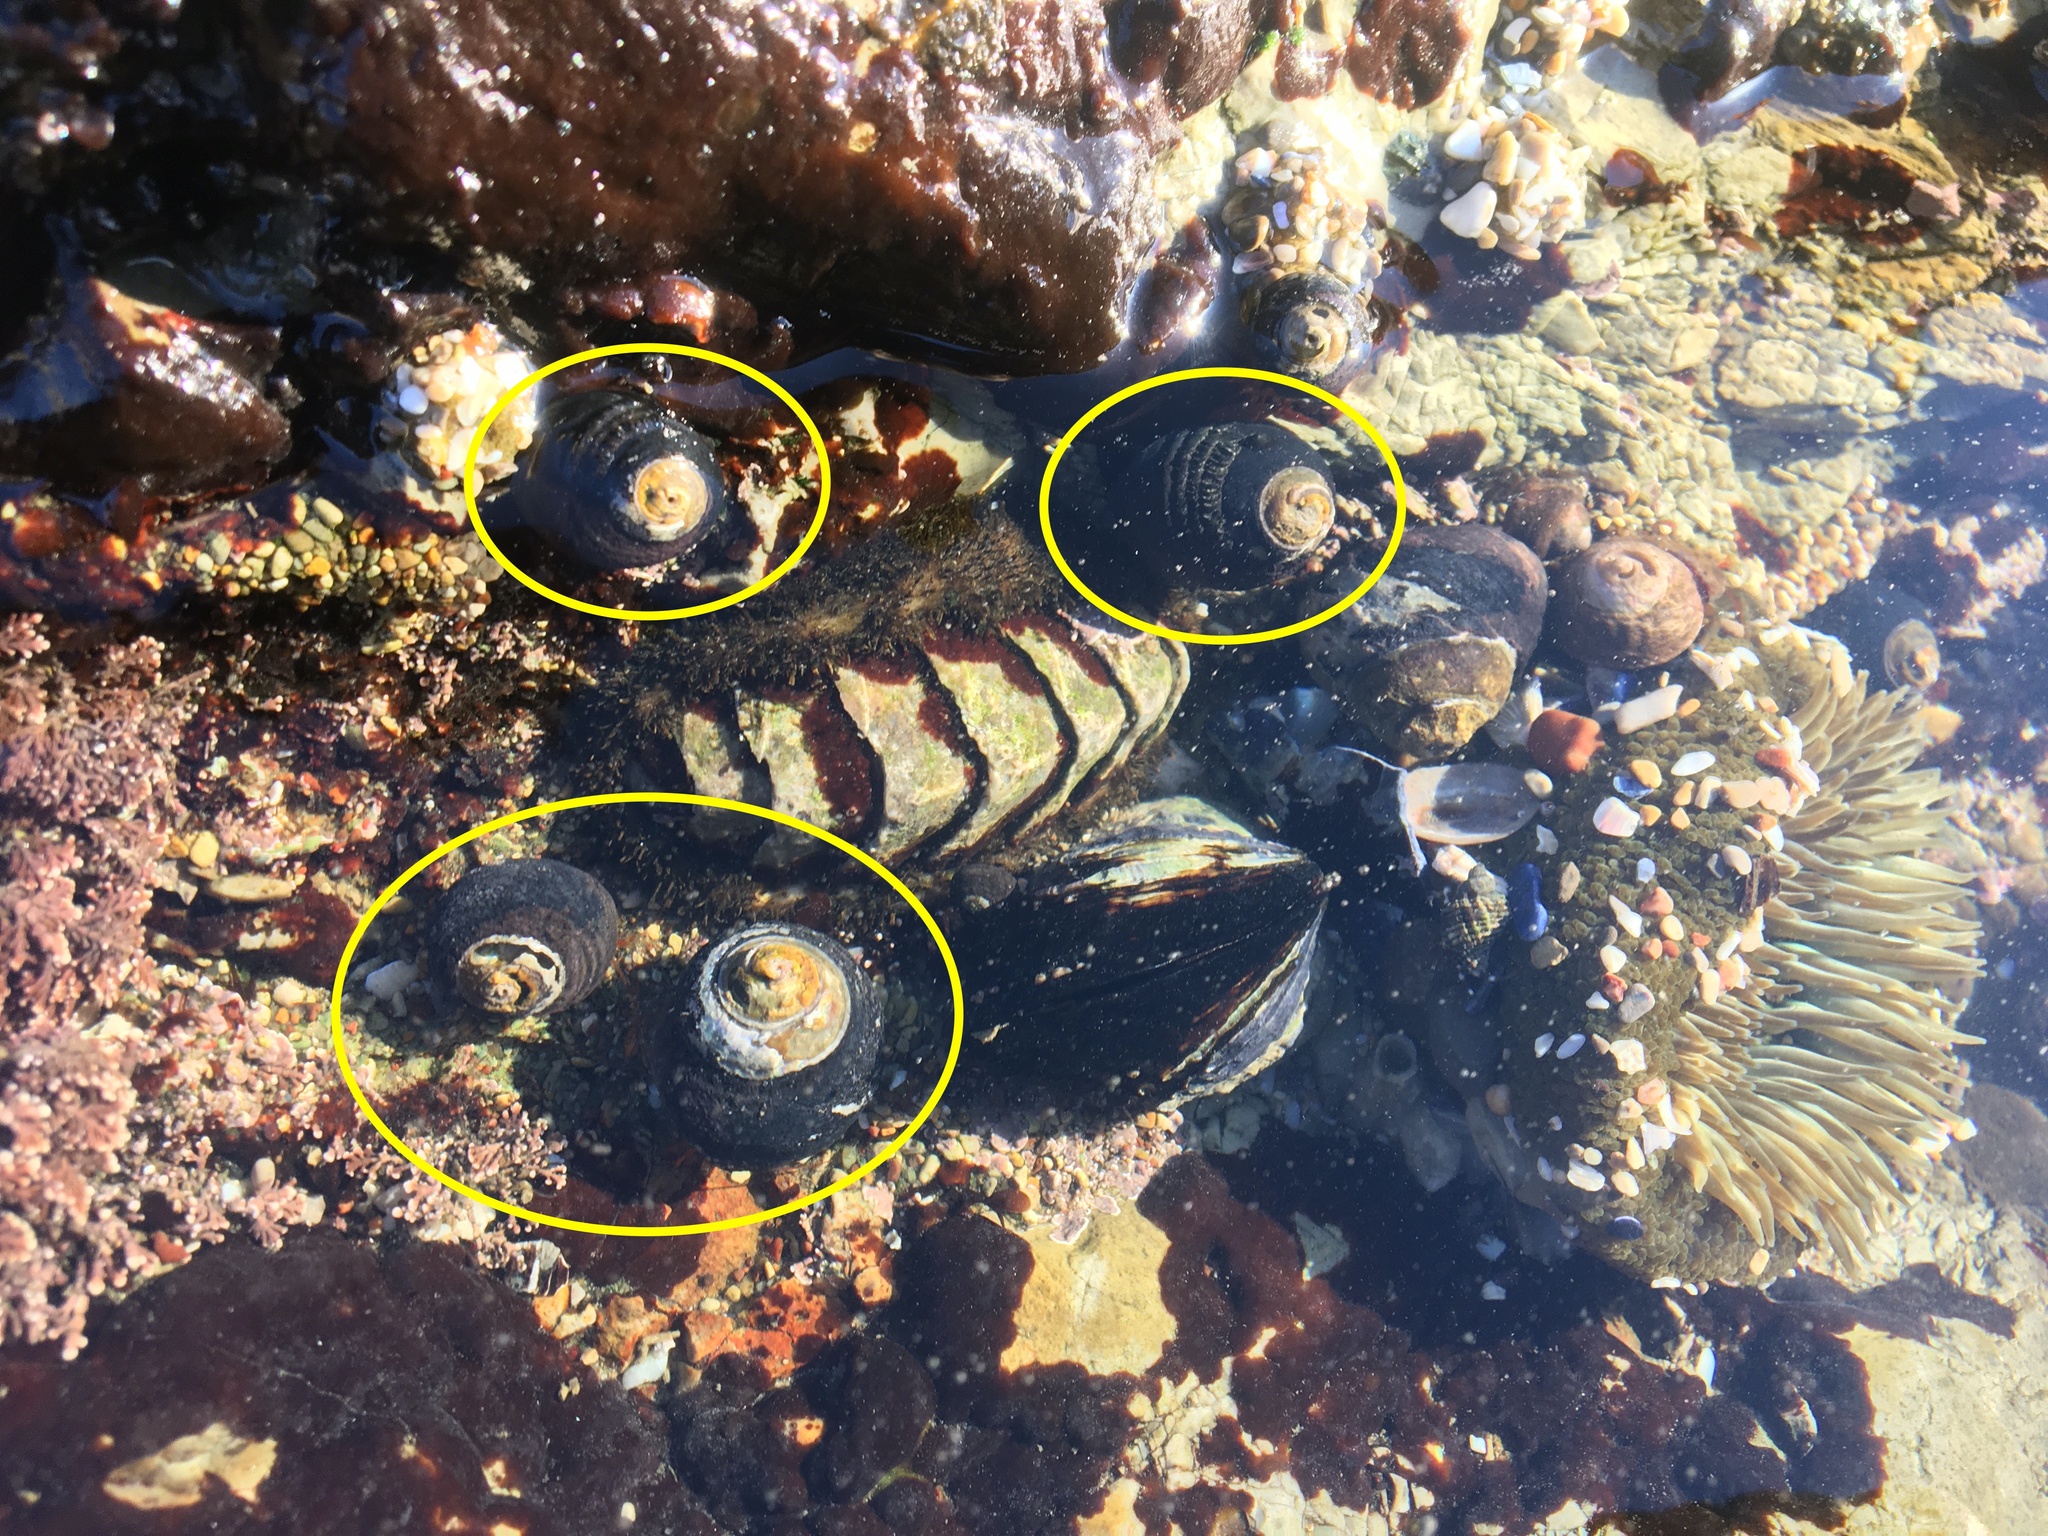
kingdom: Animalia
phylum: Mollusca
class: Gastropoda
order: Trochida
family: Tegulidae
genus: Tegula
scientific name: Tegula funebralis
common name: Black tegula
